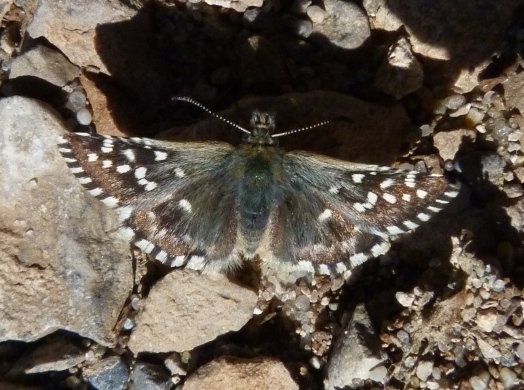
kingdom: Animalia
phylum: Arthropoda
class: Insecta
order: Lepidoptera
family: Hesperiidae
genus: Pyrgus
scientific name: Pyrgus malvoides
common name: Southern grizzled skipper
